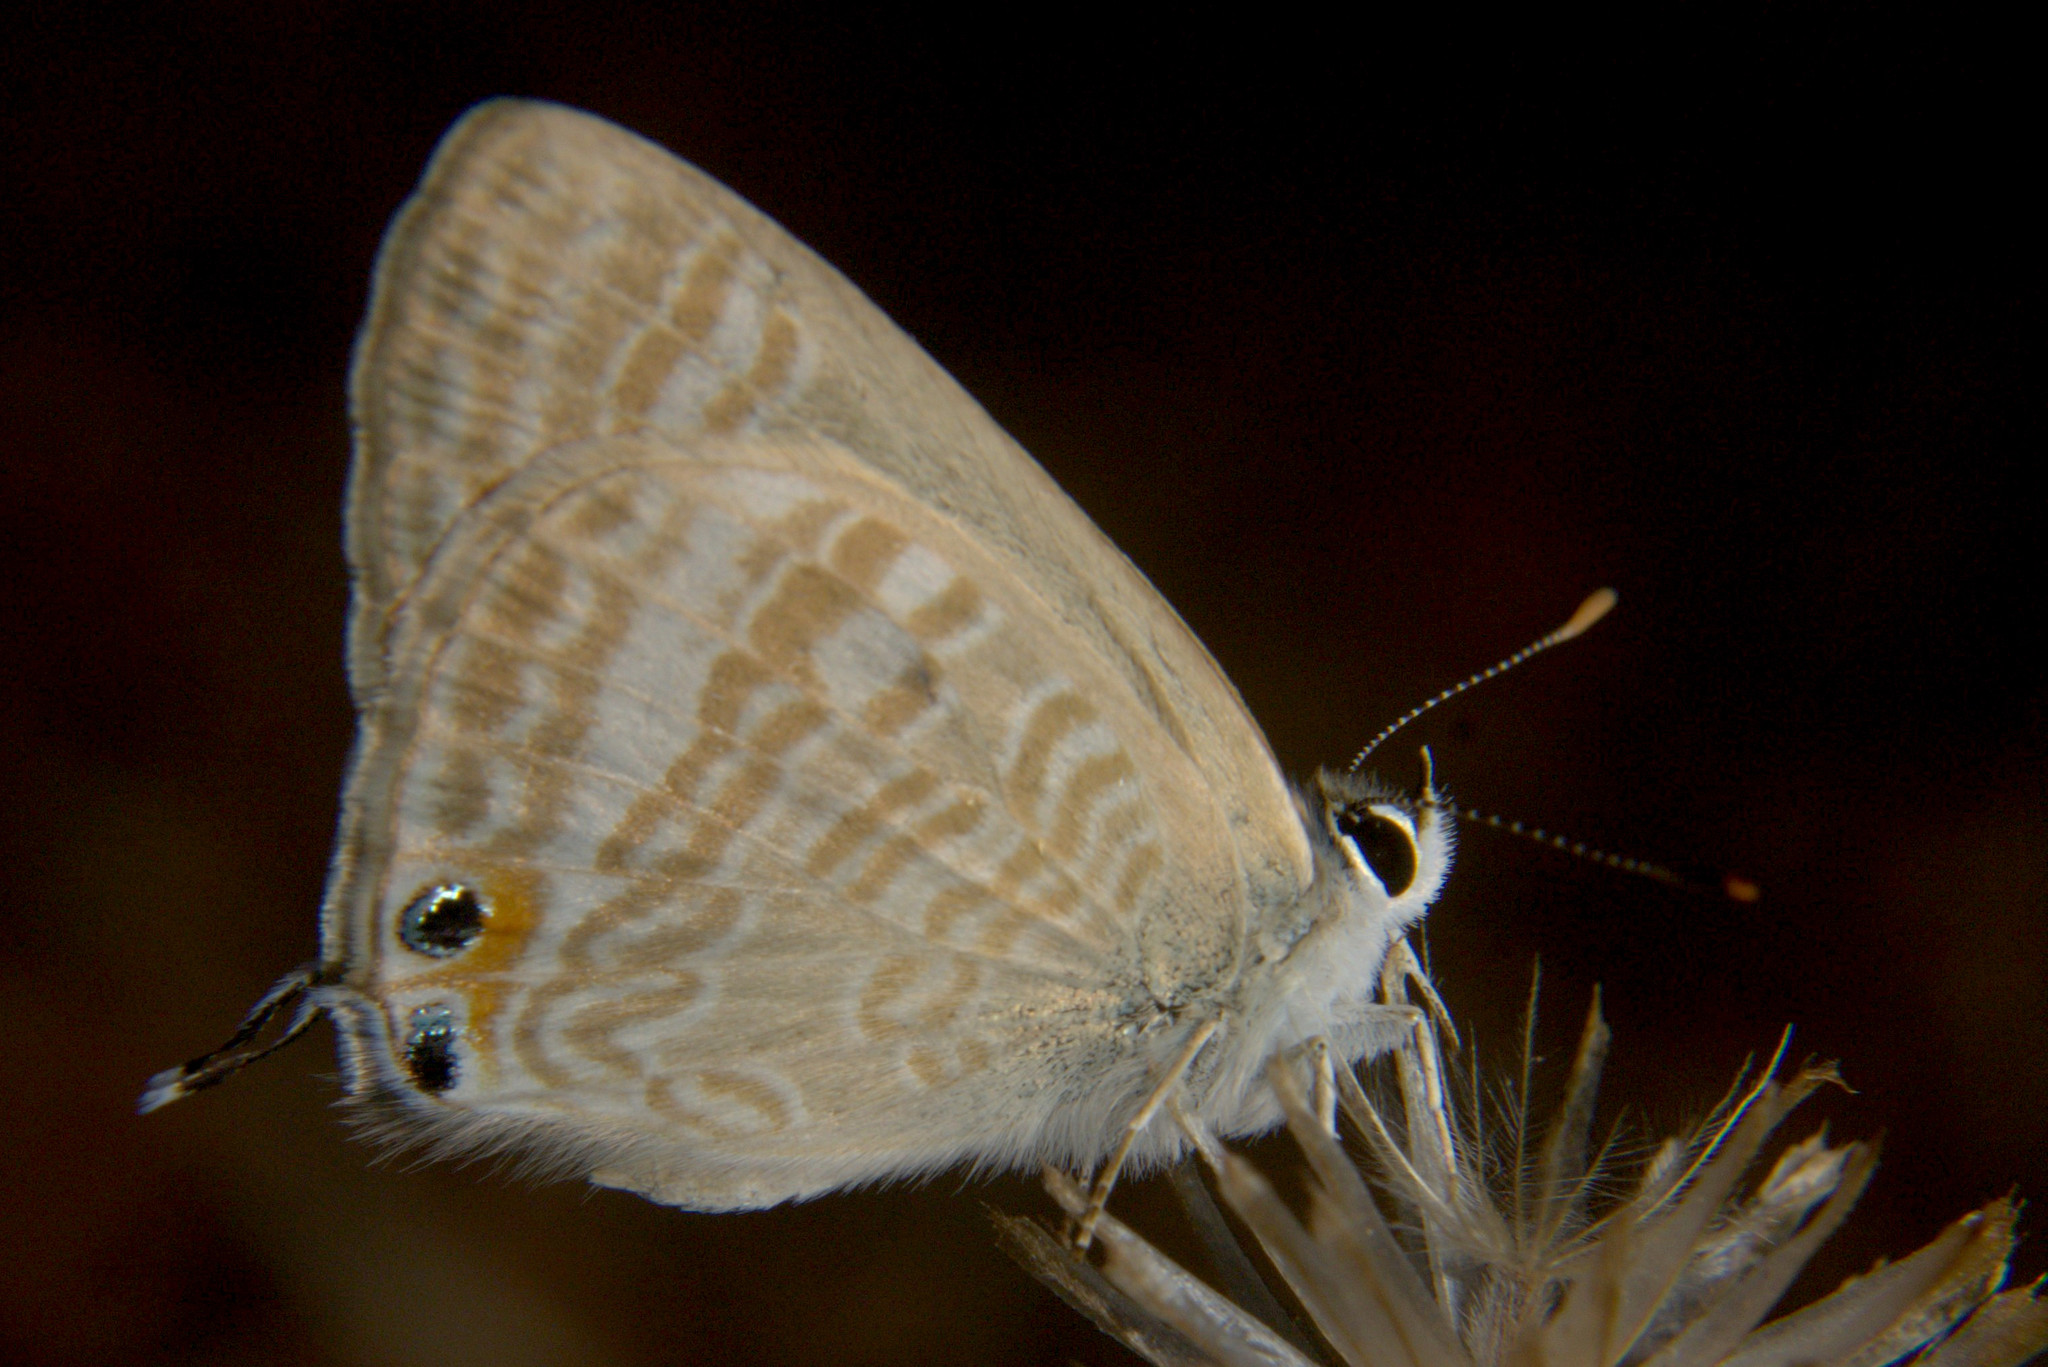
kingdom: Animalia
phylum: Arthropoda
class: Insecta
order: Lepidoptera
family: Lycaenidae
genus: Lampides
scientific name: Lampides boeticus
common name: Long-tailed blue
